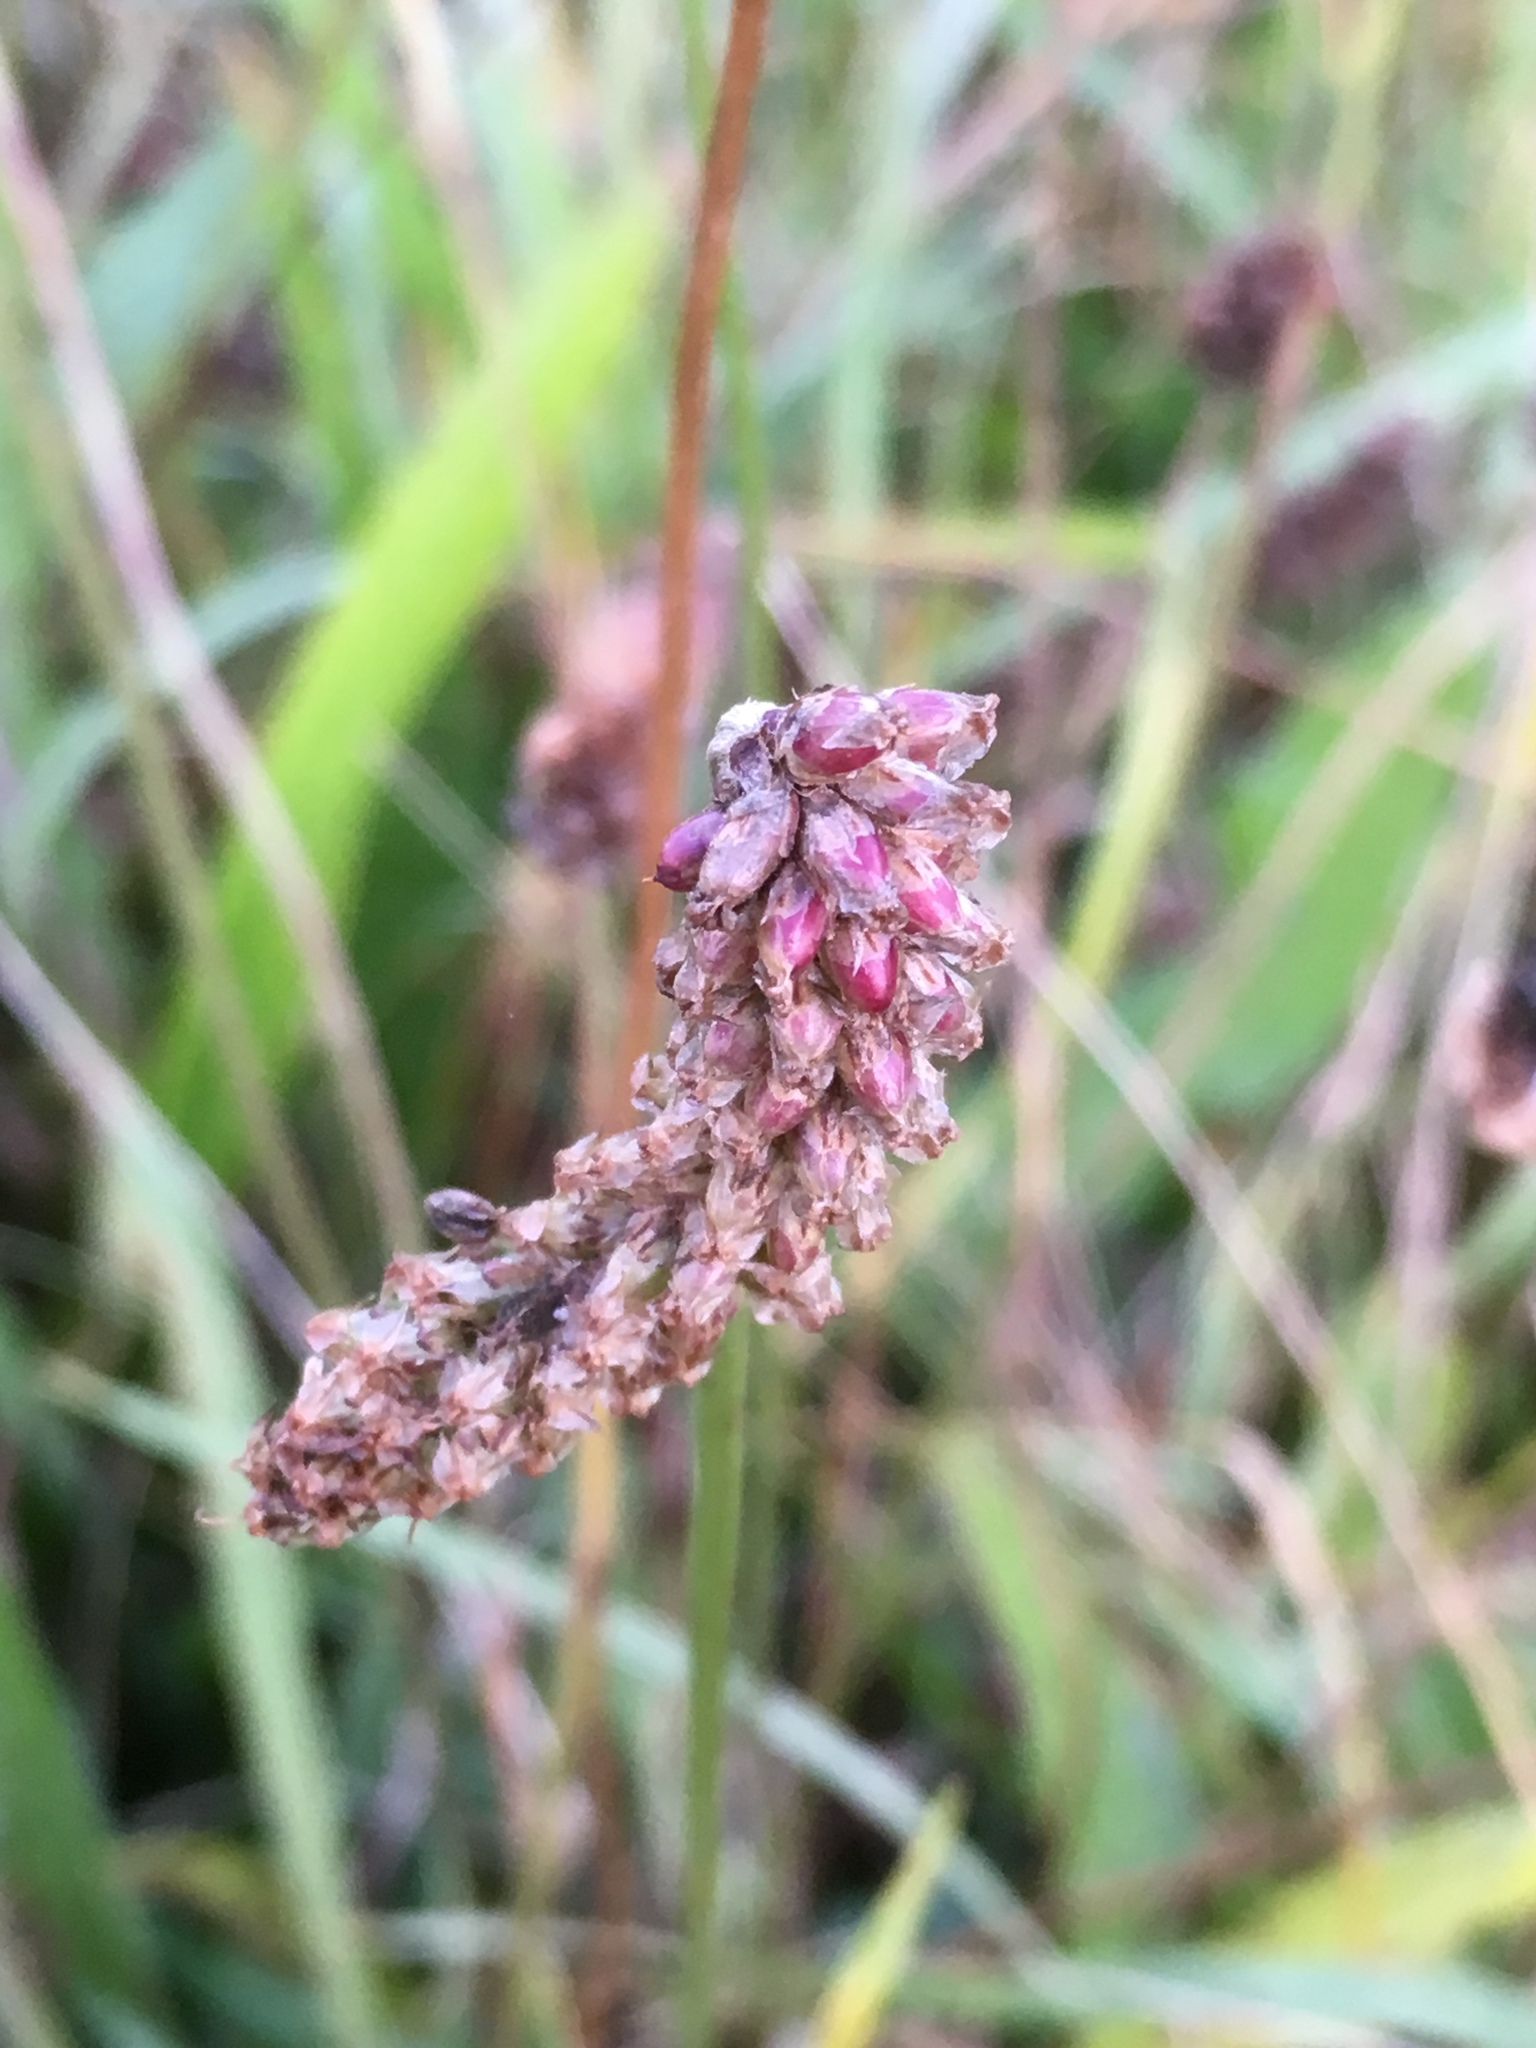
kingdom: Plantae
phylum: Tracheophyta
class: Magnoliopsida
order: Lamiales
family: Plantaginaceae
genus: Plantago
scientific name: Plantago lanceolata
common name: Ribwort plantain
